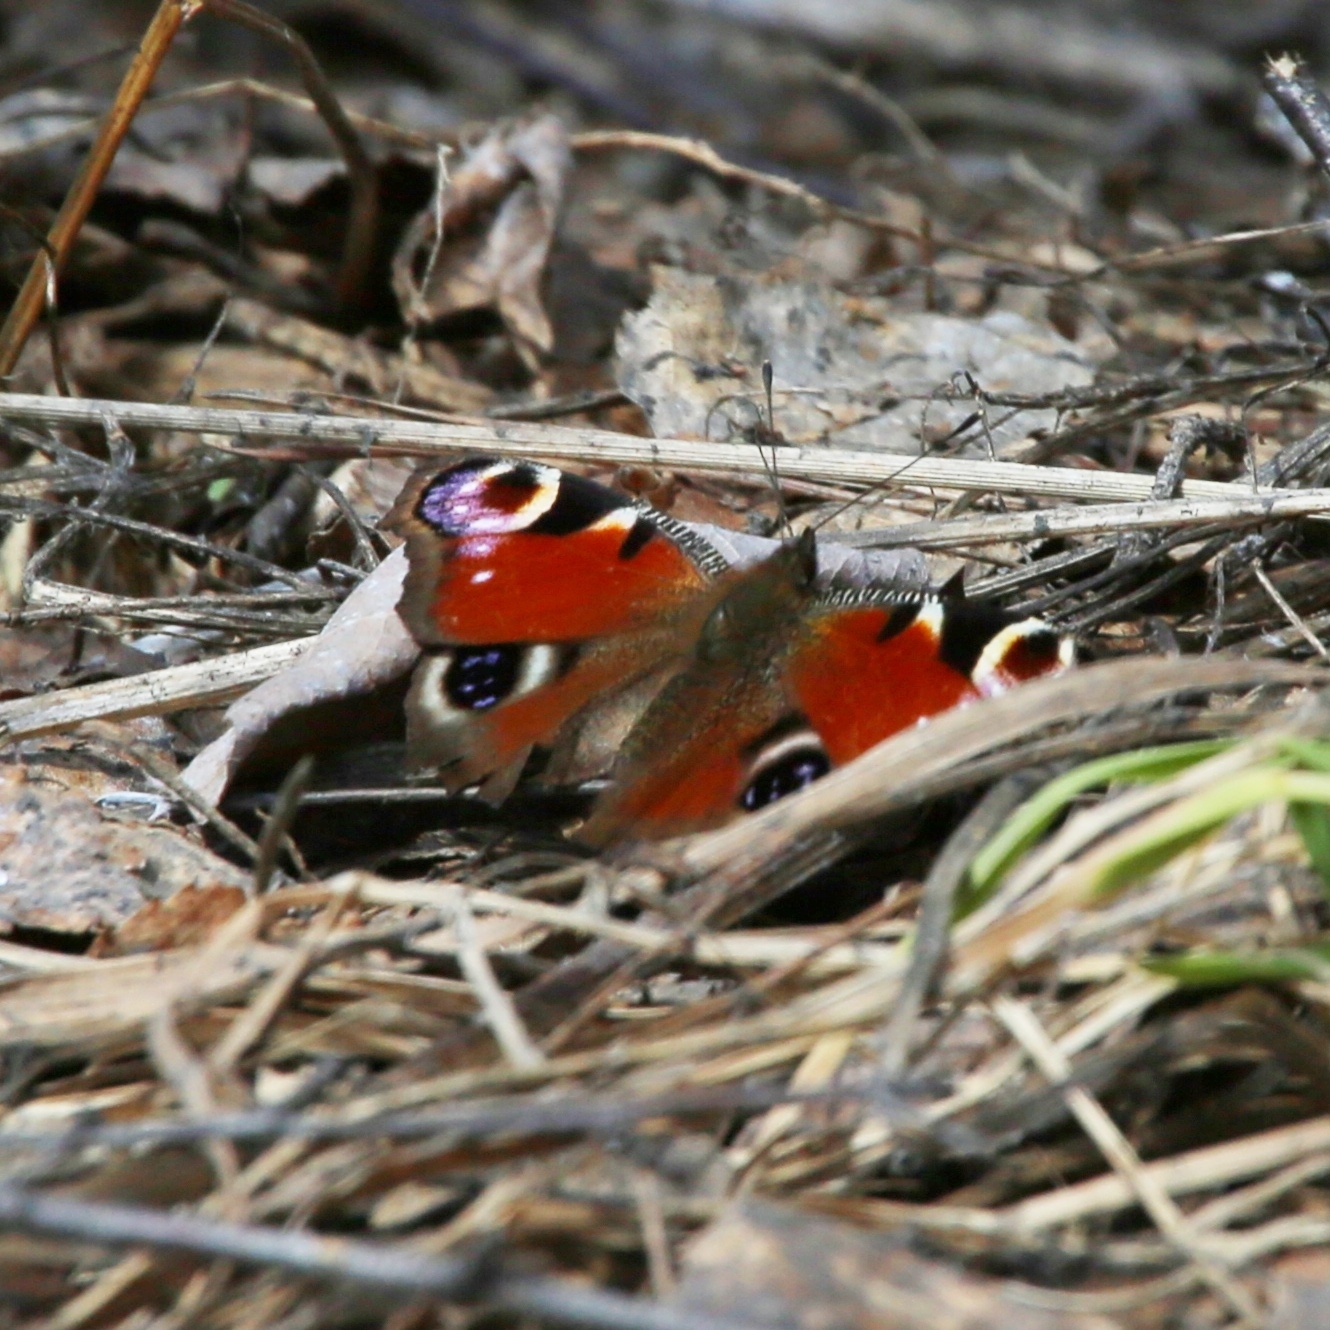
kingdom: Animalia
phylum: Arthropoda
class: Insecta
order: Lepidoptera
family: Nymphalidae
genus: Aglais
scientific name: Aglais io
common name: Peacock
